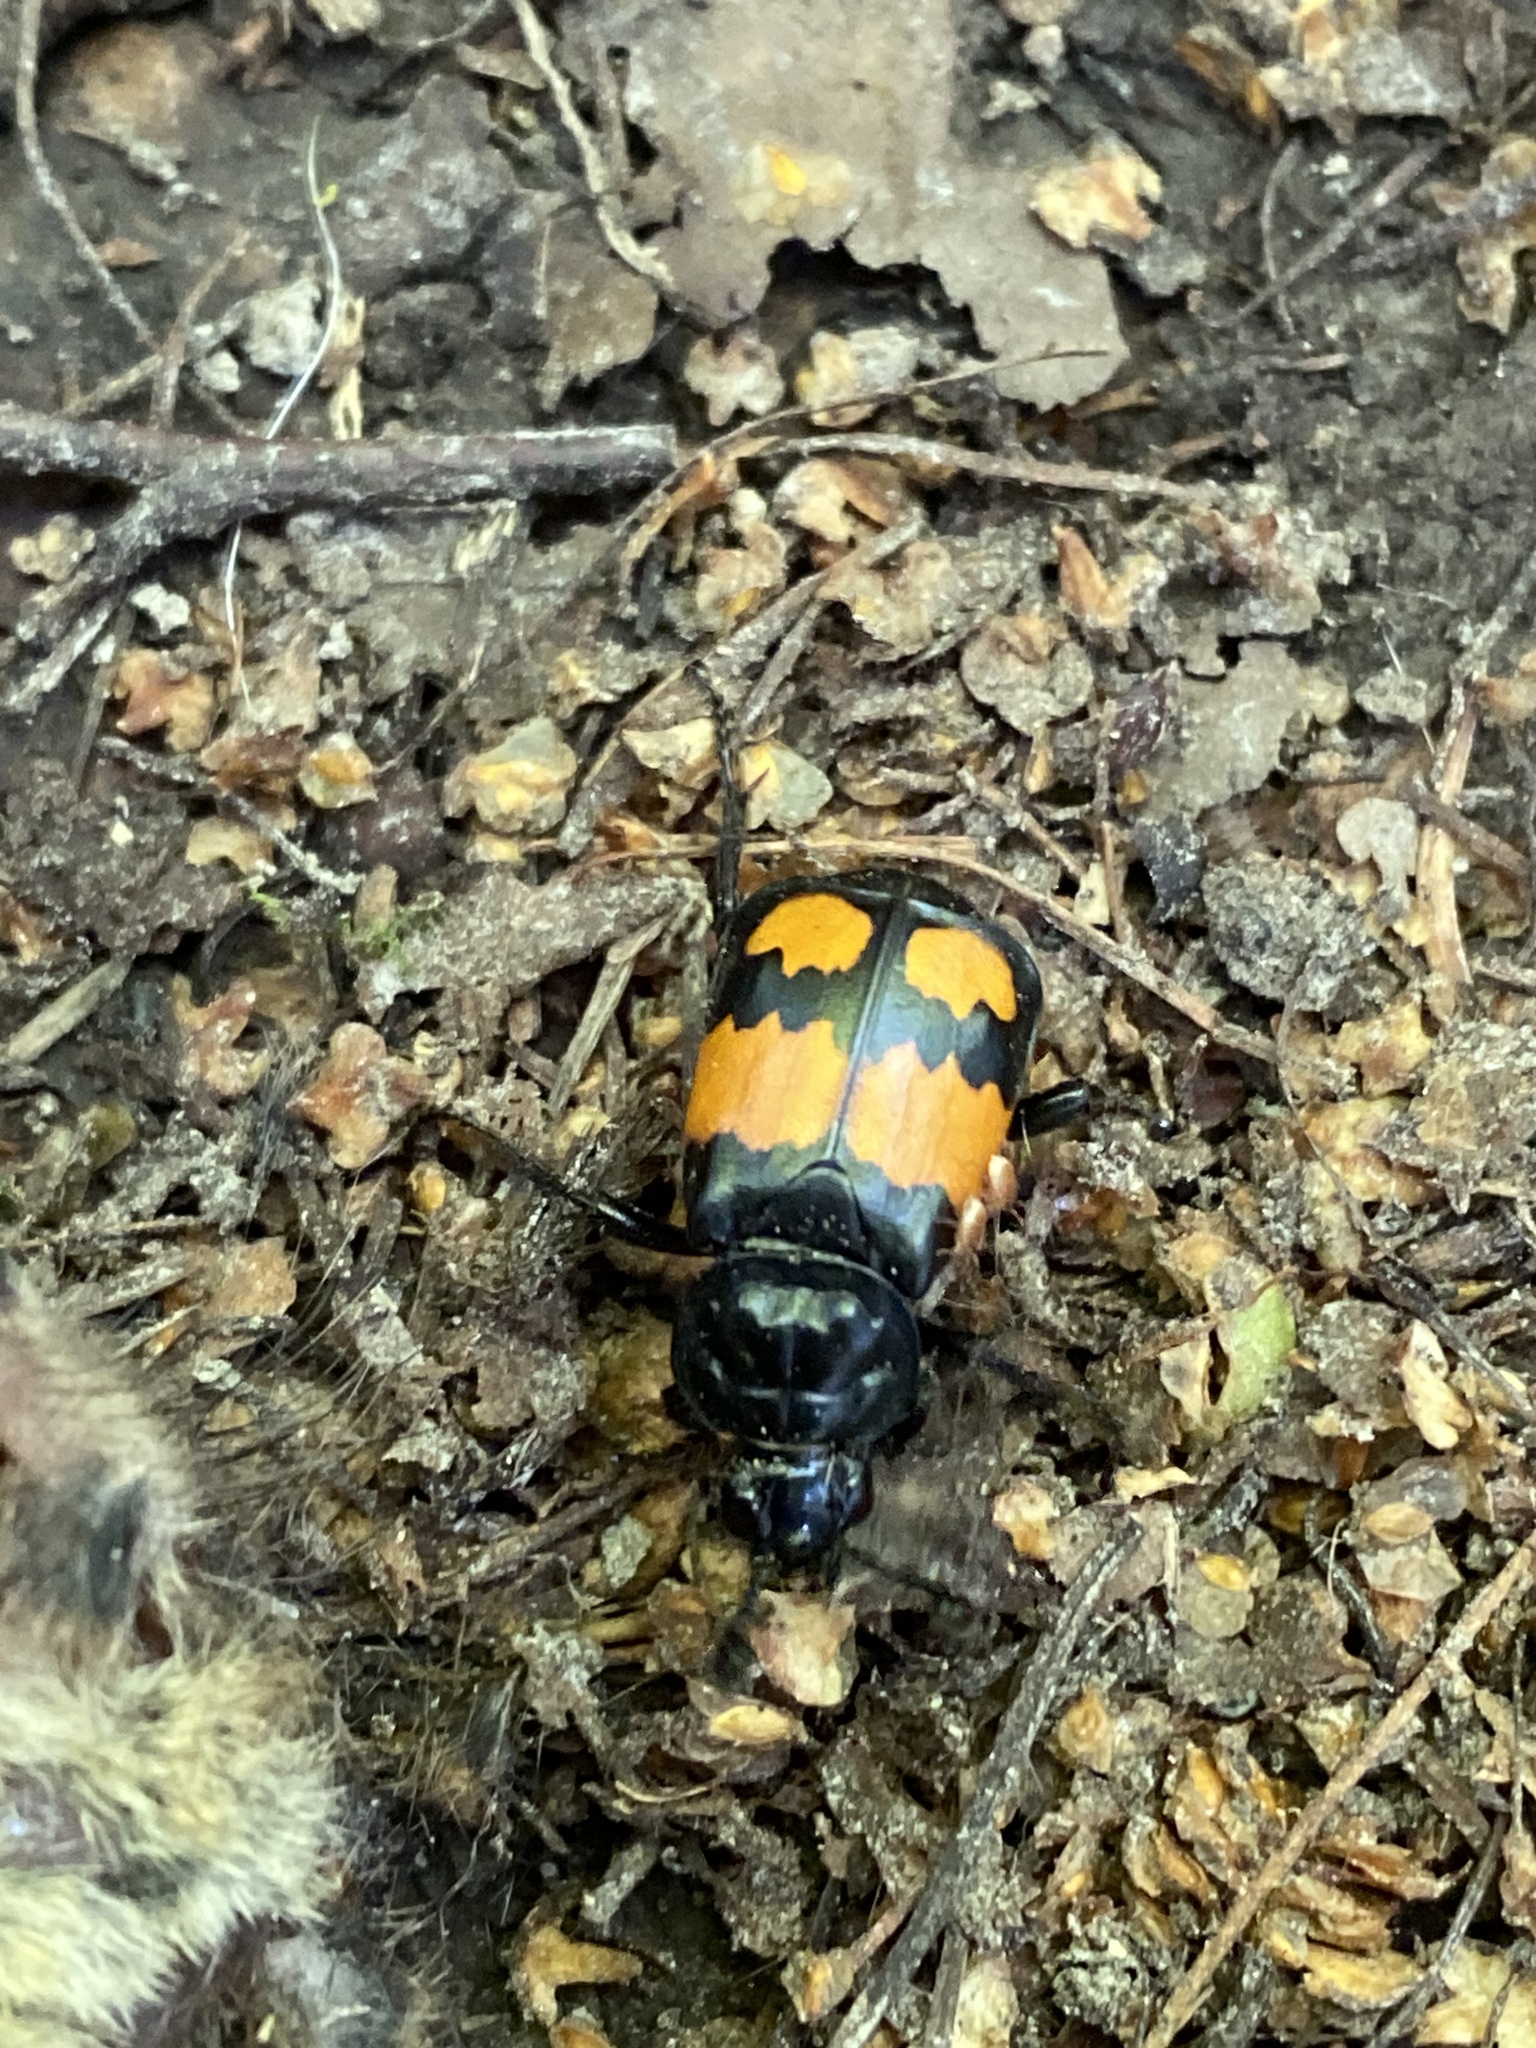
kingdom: Animalia
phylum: Arthropoda
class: Insecta
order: Coleoptera
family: Staphylinidae
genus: Nicrophorus
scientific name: Nicrophorus vespilloides
